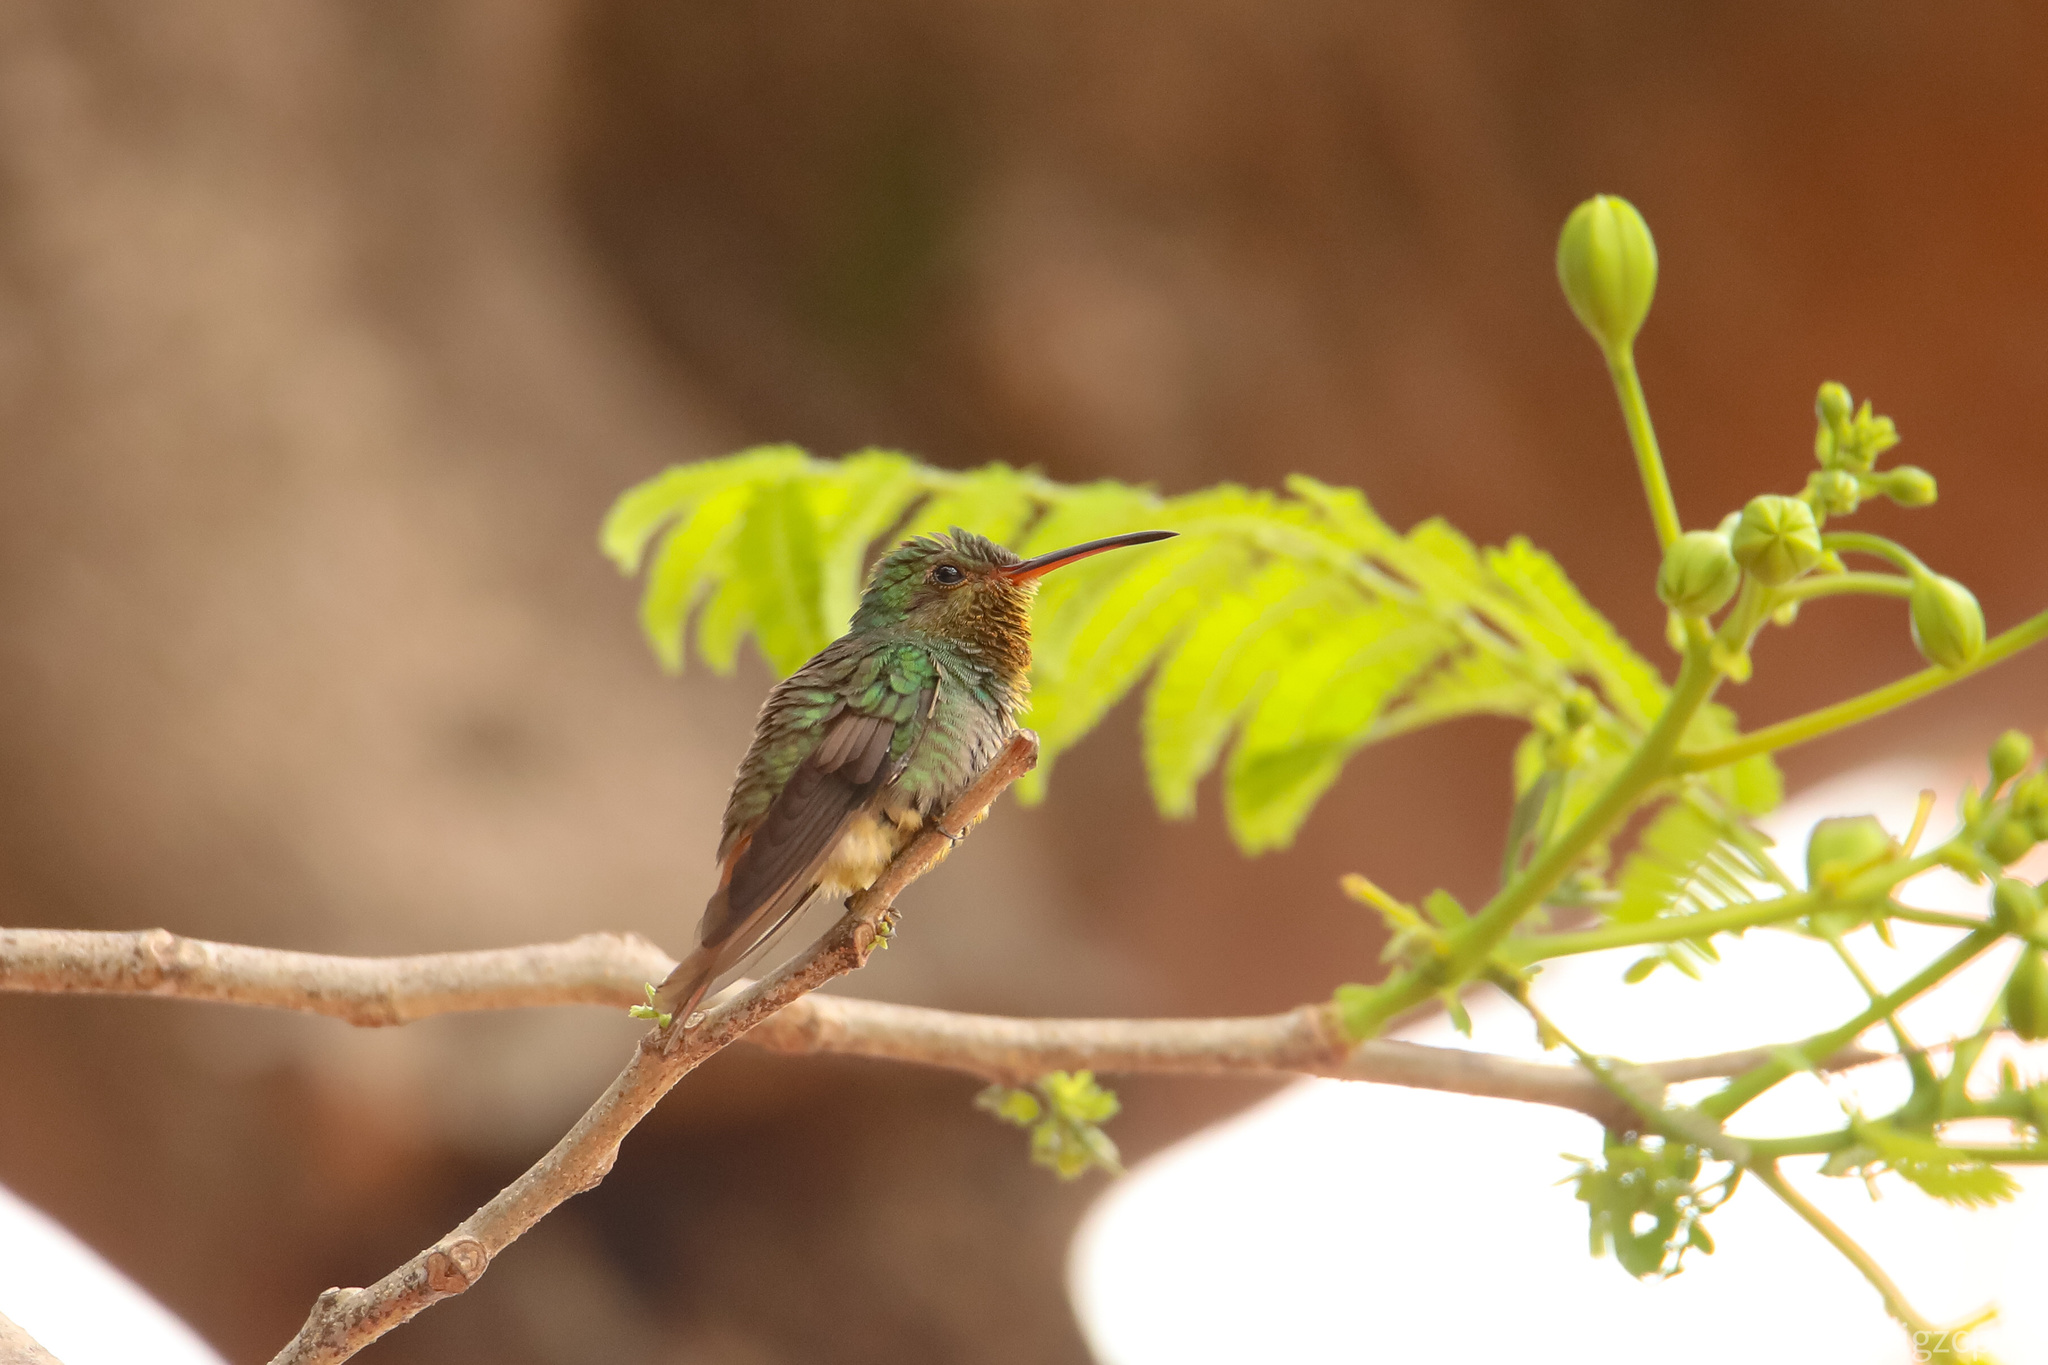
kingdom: Animalia
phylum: Chordata
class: Aves
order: Apodiformes
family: Trochilidae
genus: Amazilia
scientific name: Amazilia tzacatl
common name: Rufous-tailed hummingbird
